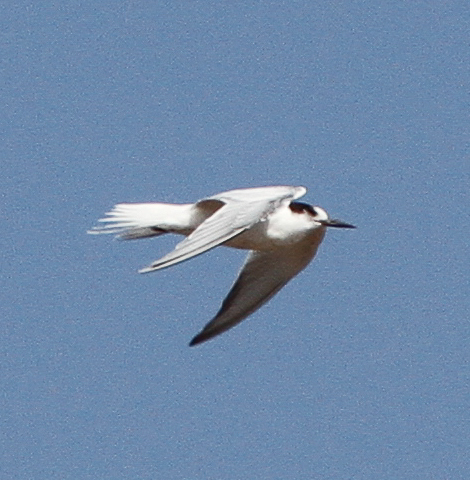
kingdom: Animalia
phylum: Chordata
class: Aves
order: Charadriiformes
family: Laridae
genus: Sterna
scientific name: Sterna hirundo
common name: Common tern
